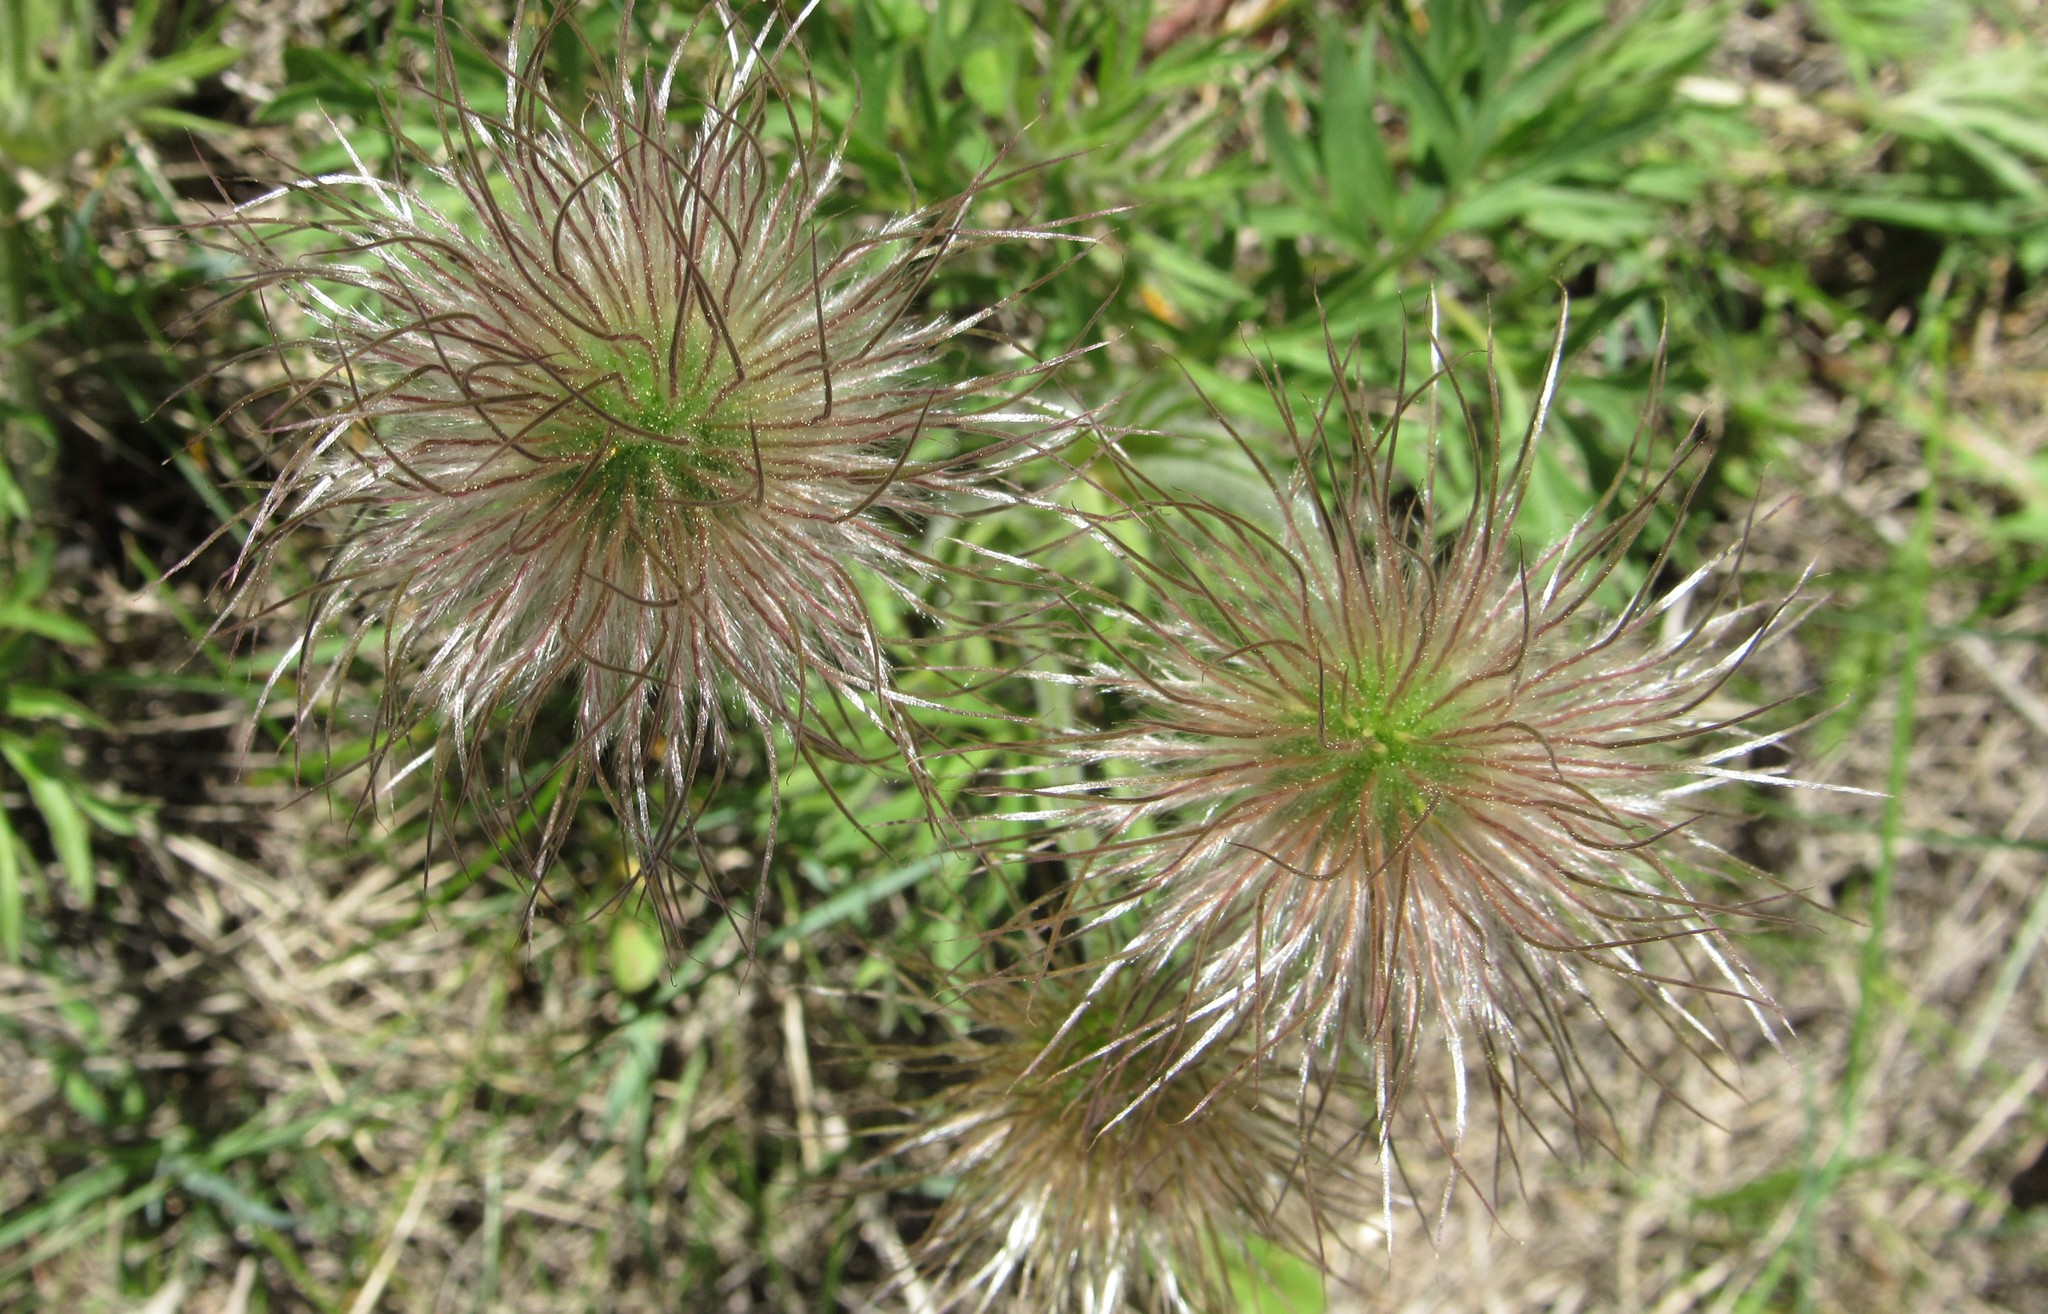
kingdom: Plantae
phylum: Tracheophyta
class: Magnoliopsida
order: Ranunculales
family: Ranunculaceae
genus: Pulsatilla
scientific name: Pulsatilla nuttalliana
